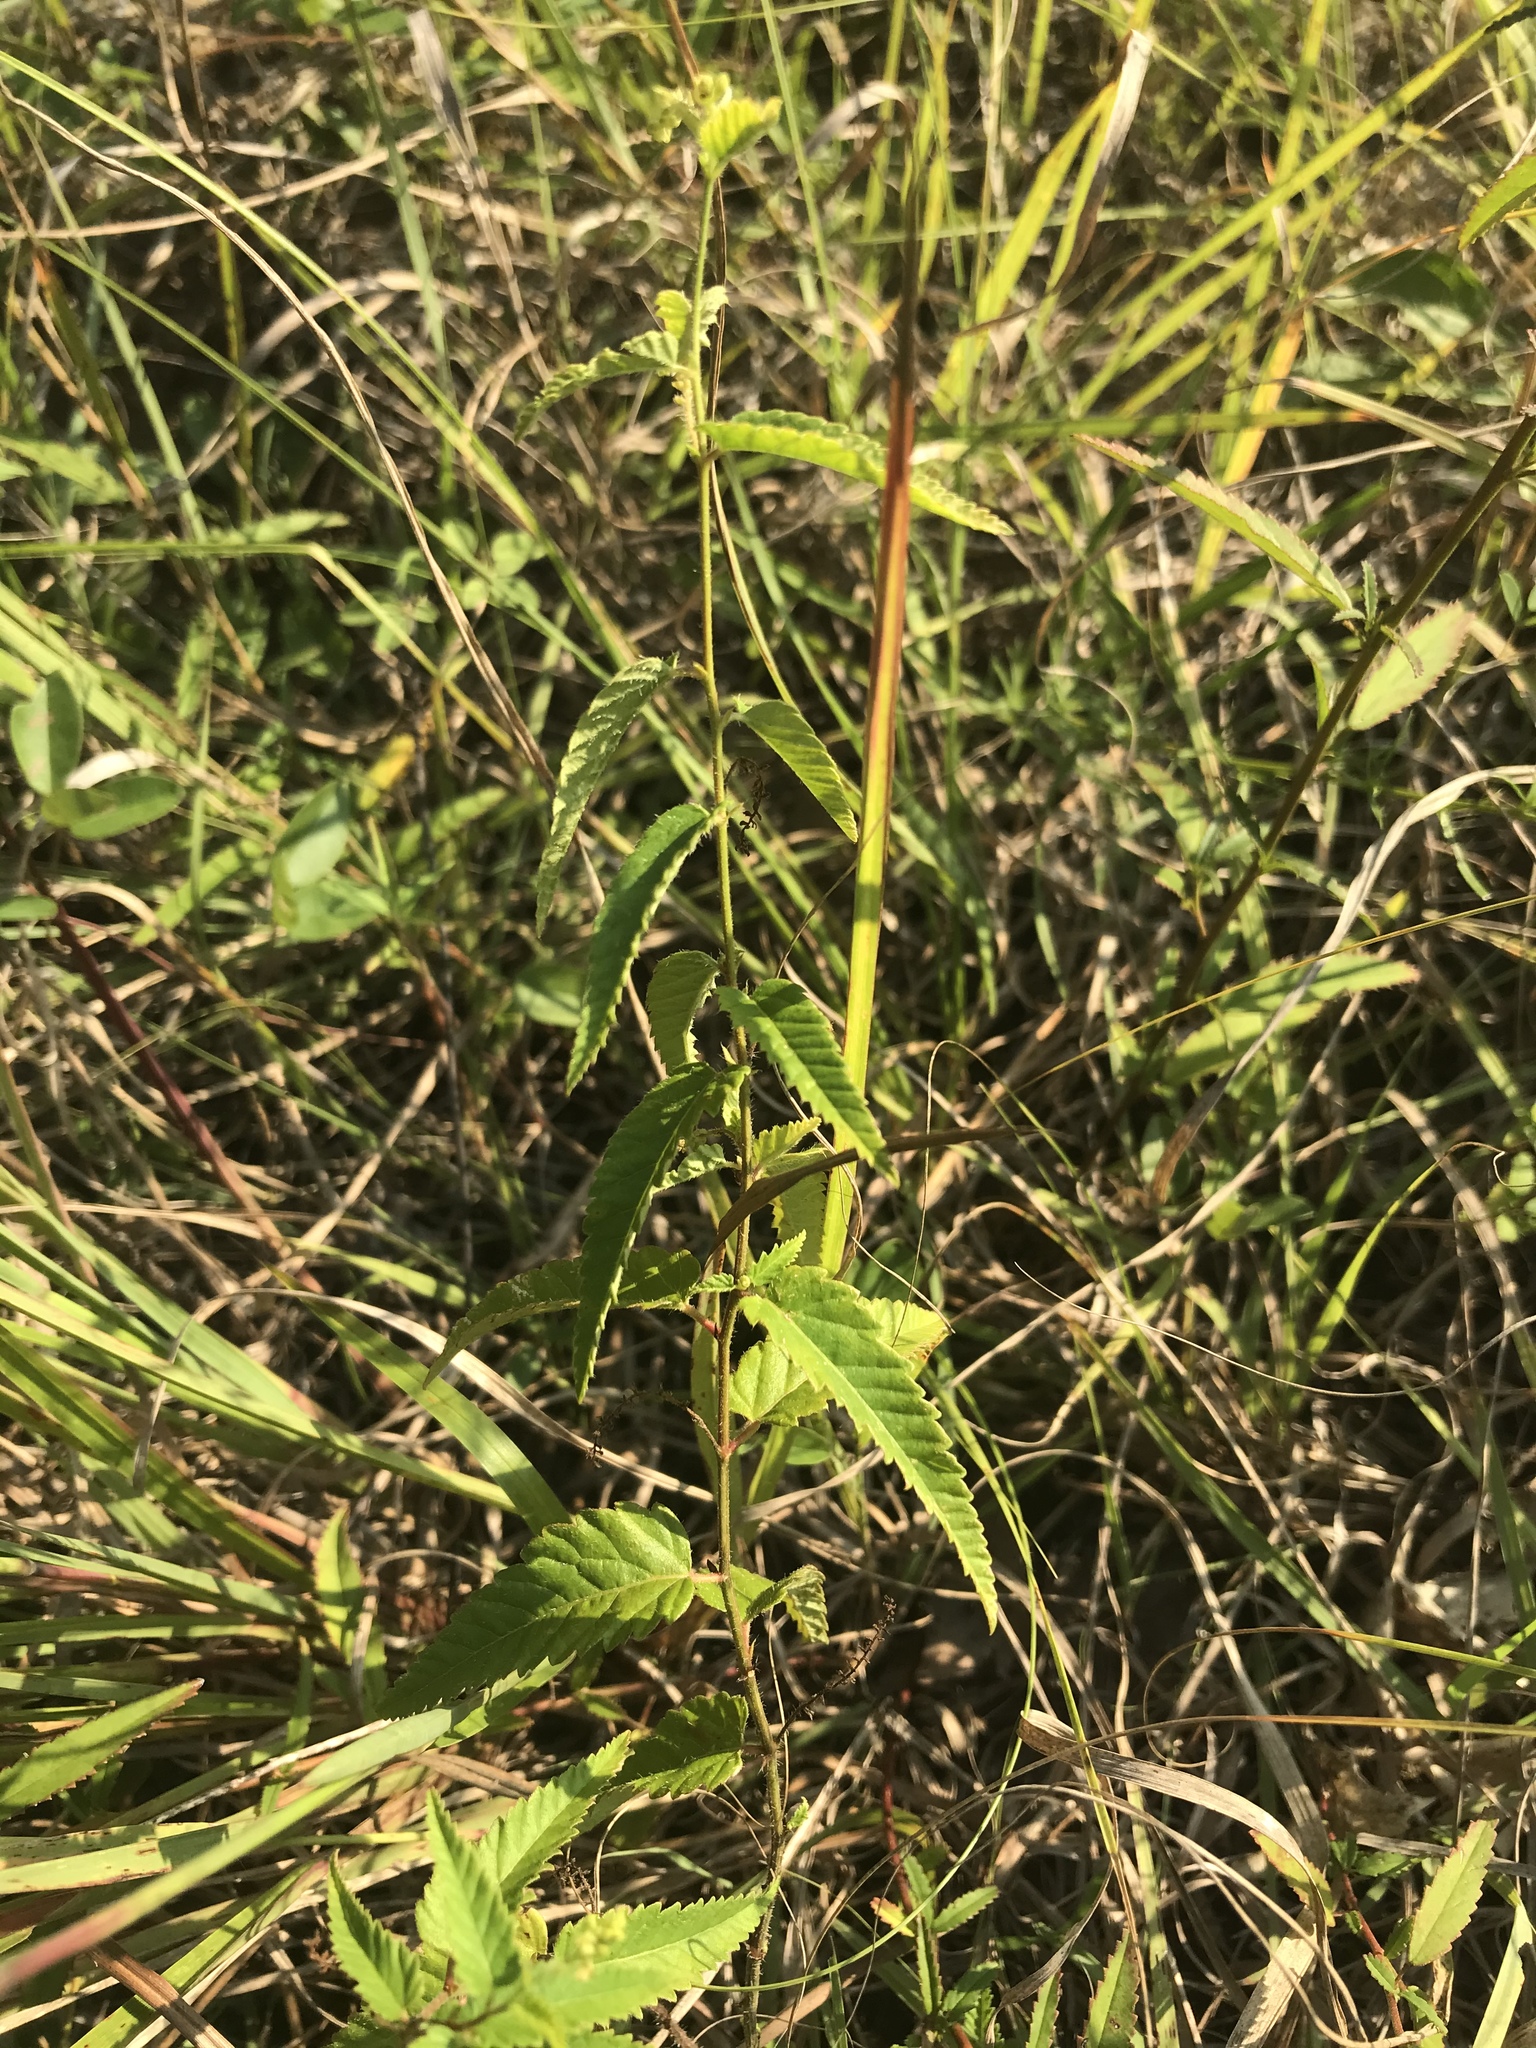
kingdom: Plantae
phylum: Tracheophyta
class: Magnoliopsida
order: Malpighiales
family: Euphorbiaceae
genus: Tragia
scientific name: Tragia urticifolia
